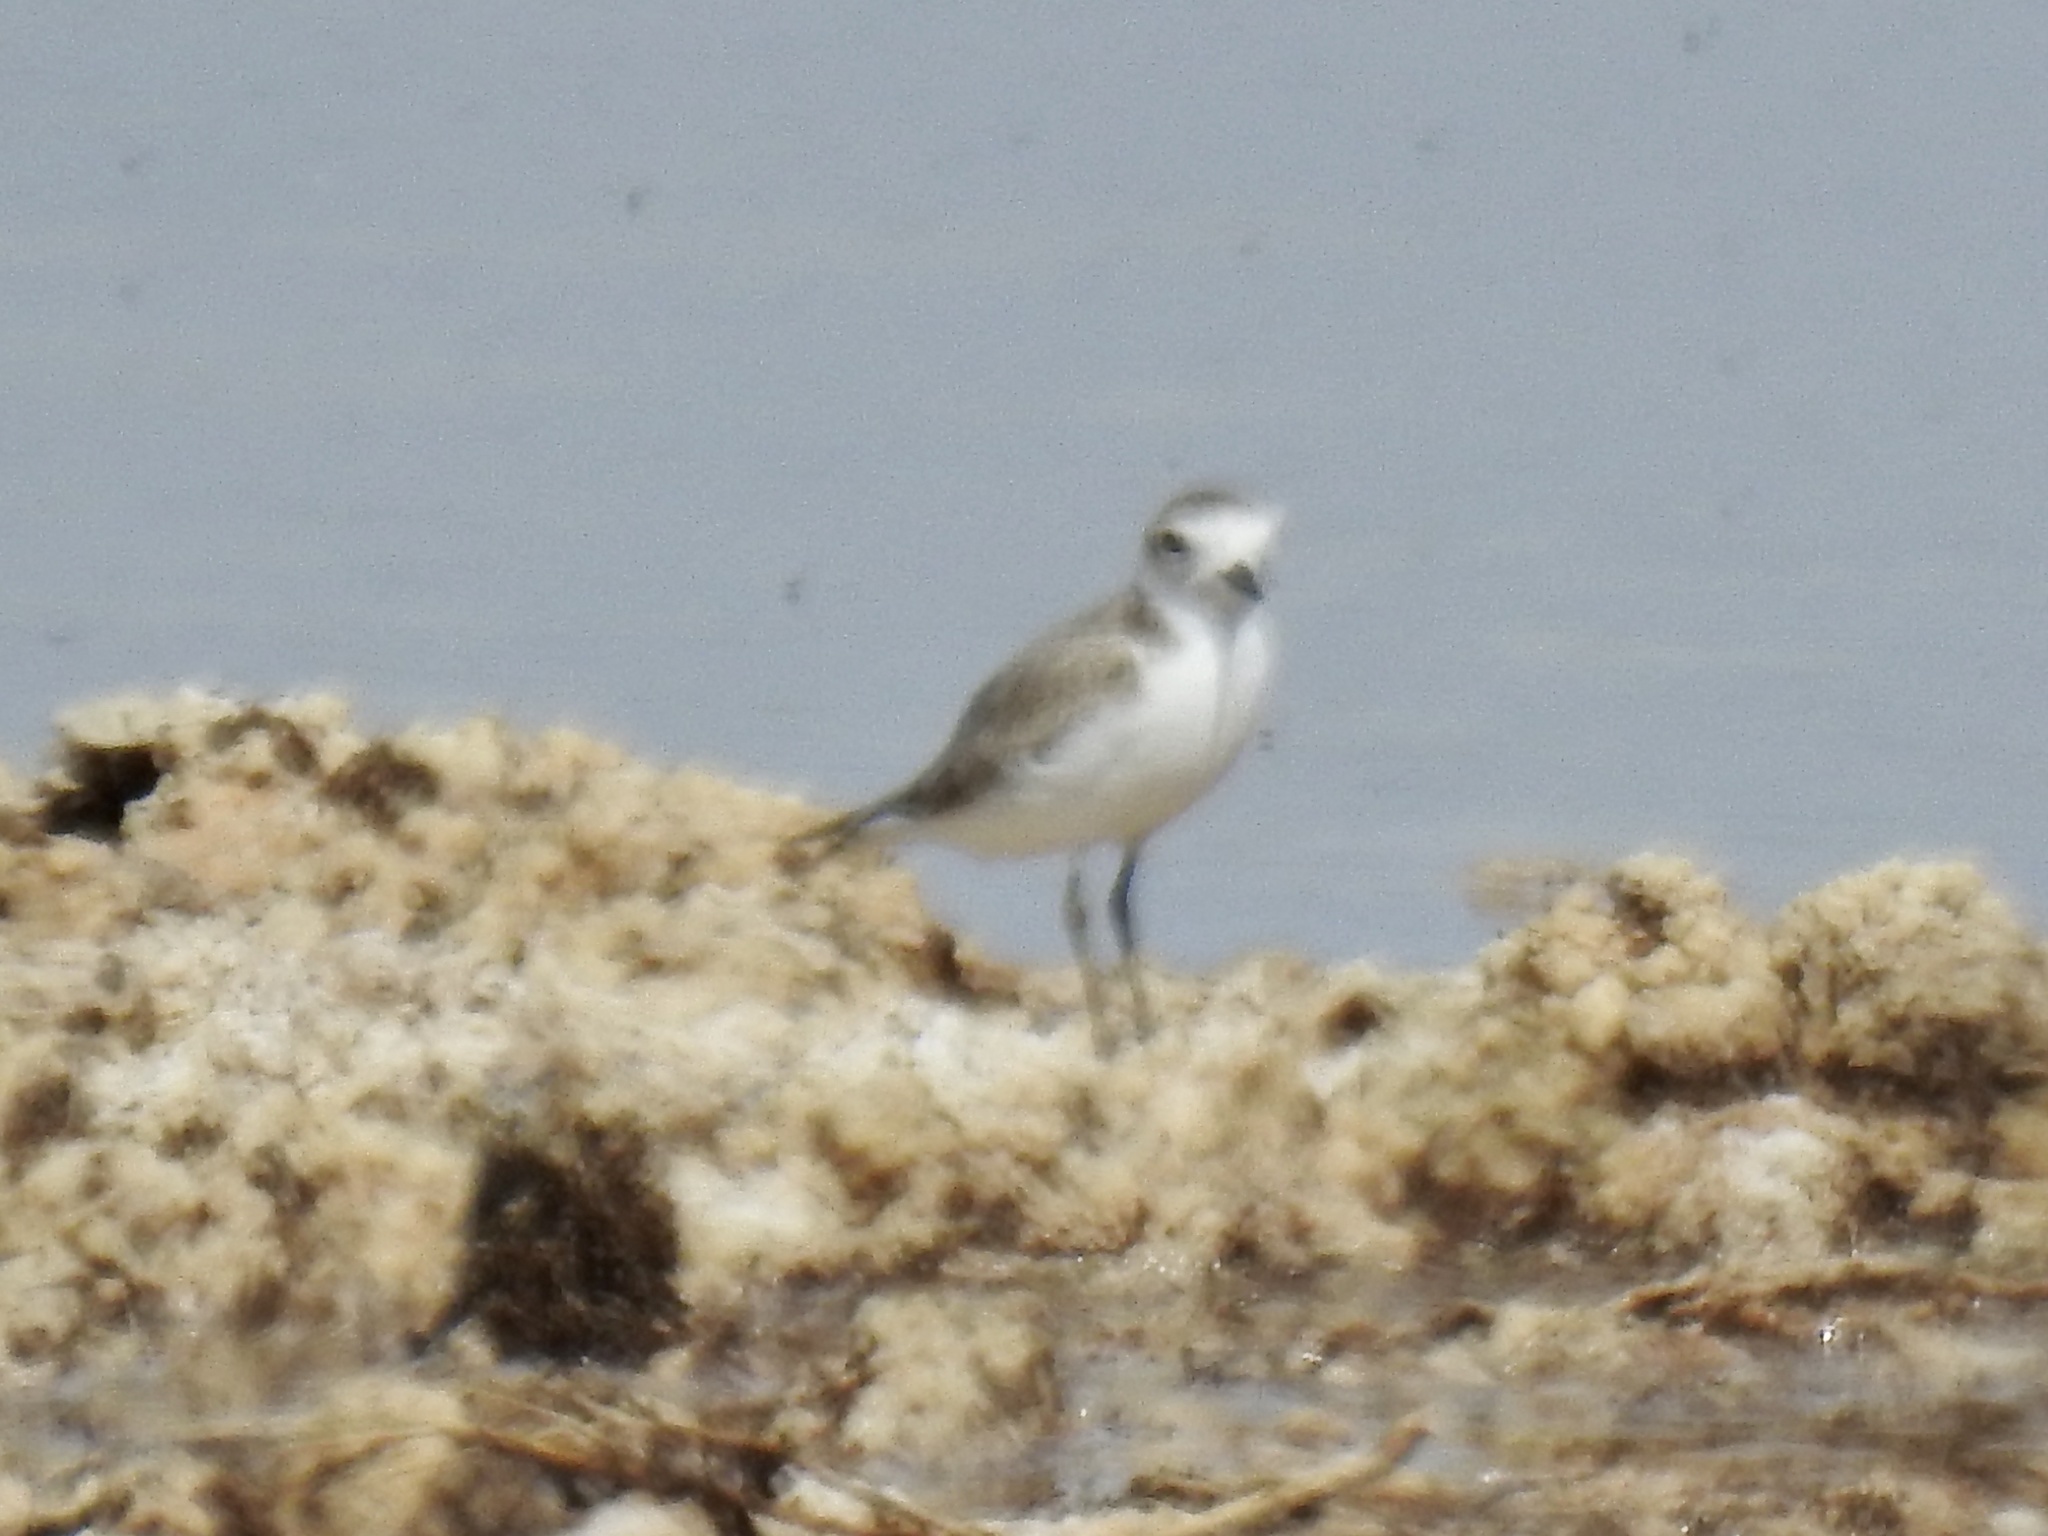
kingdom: Animalia
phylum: Chordata
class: Aves
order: Charadriiformes
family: Charadriidae
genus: Anarhynchus
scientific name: Anarhynchus
